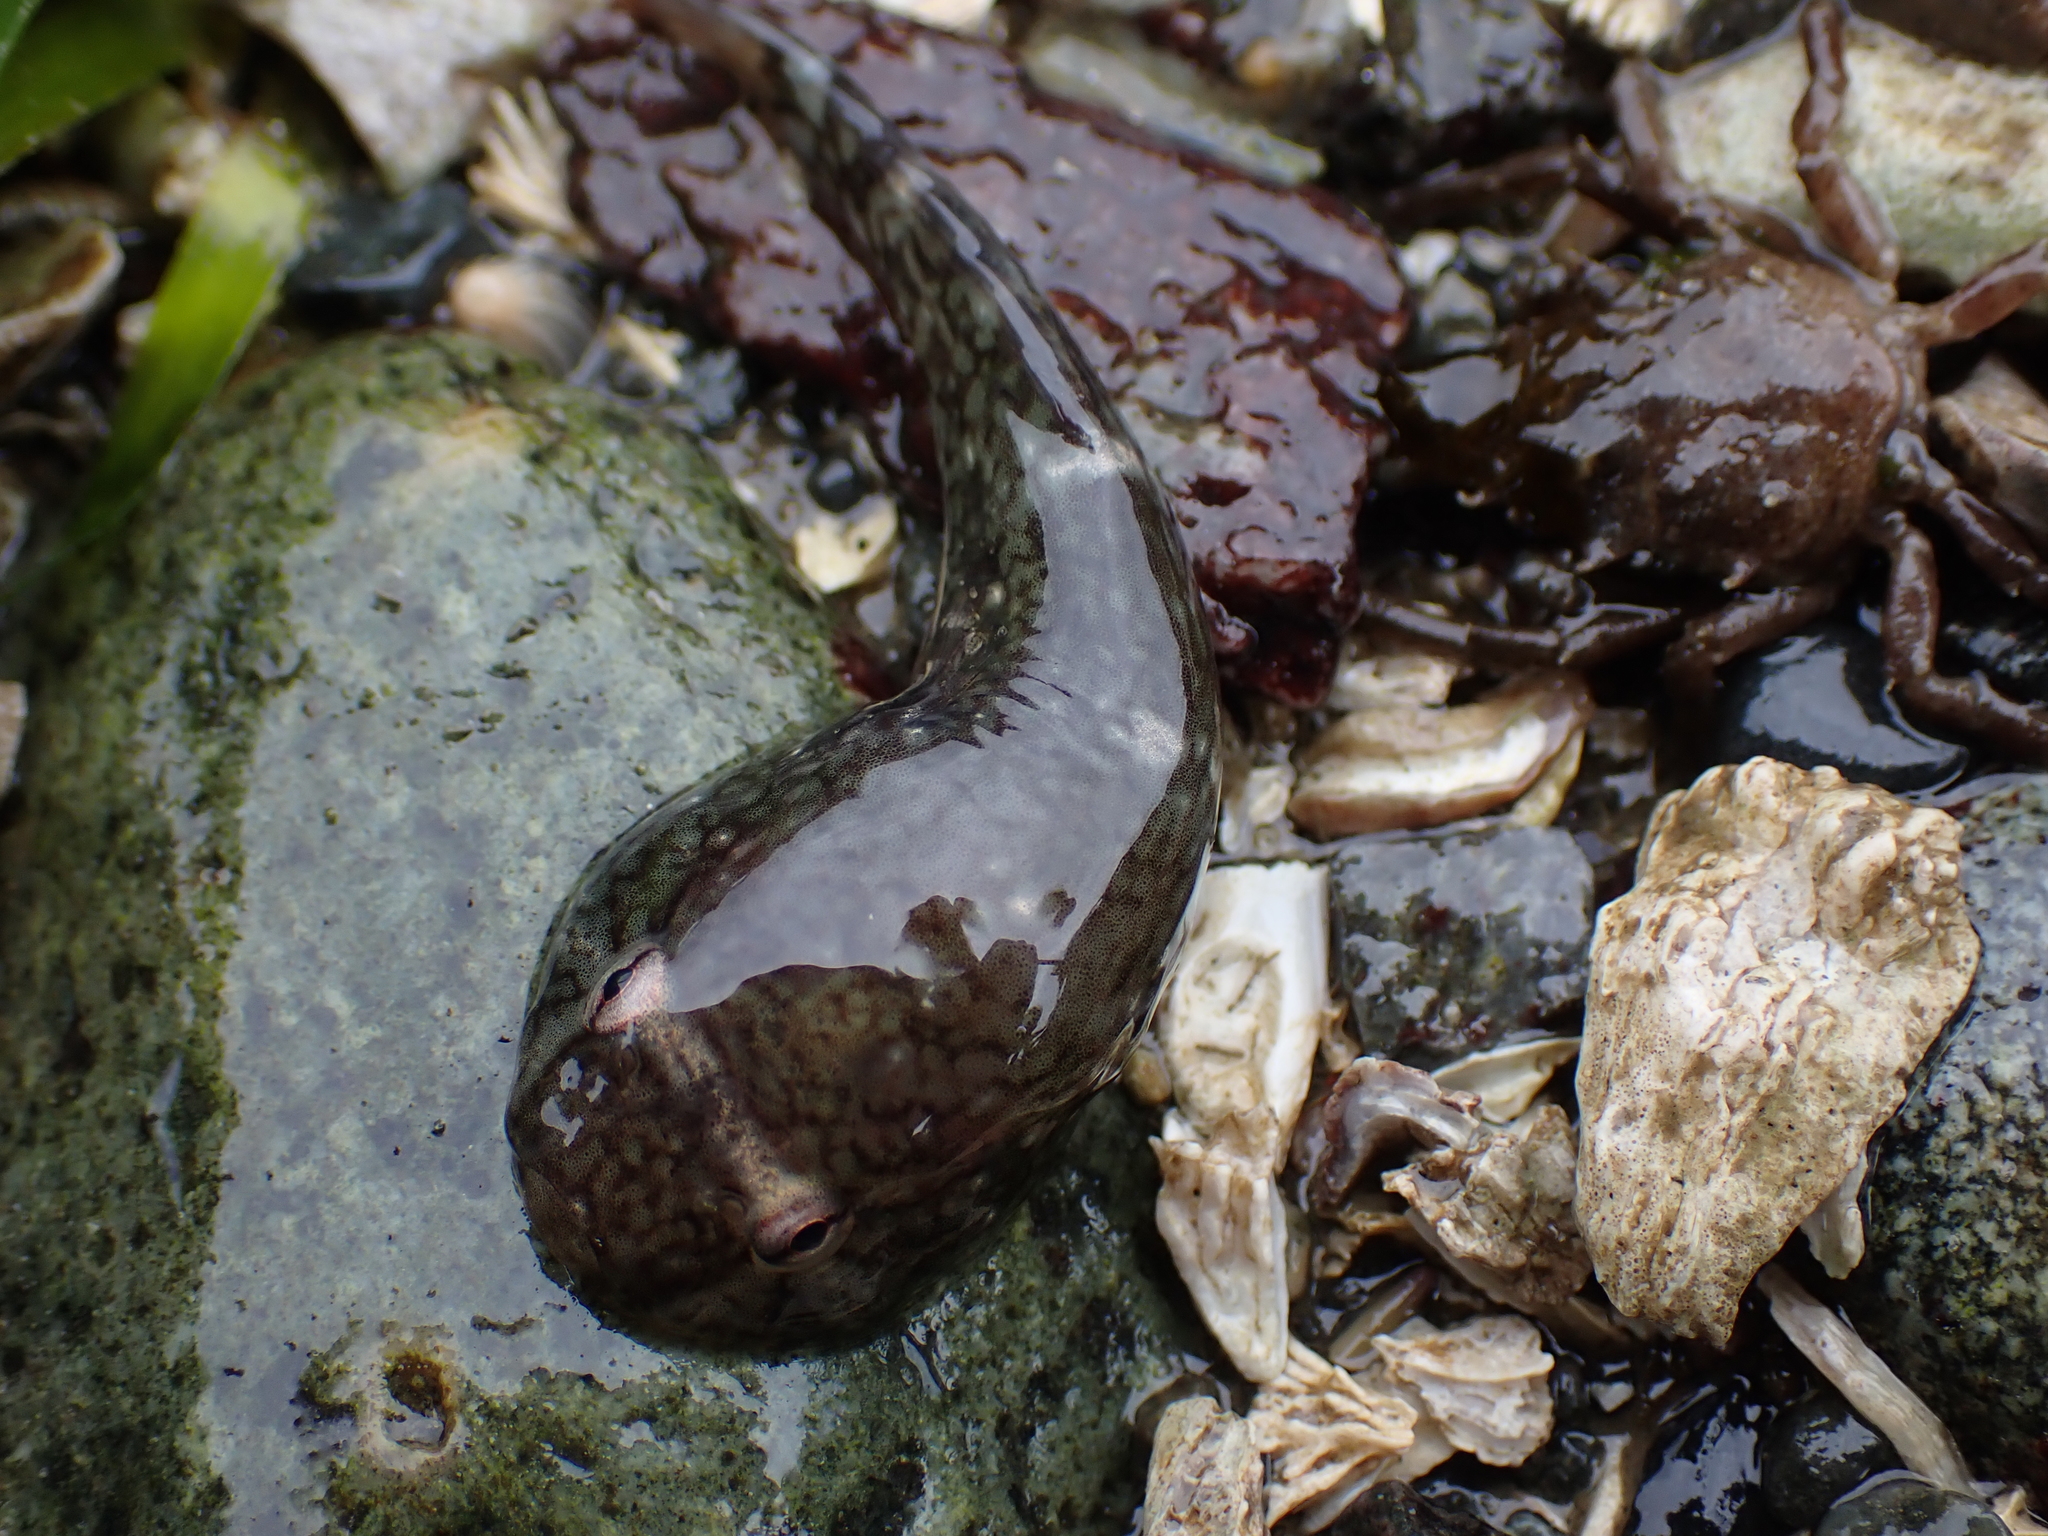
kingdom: Animalia
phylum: Chordata
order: Gobiesociformes
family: Gobiesocidae
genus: Gobiesox
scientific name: Gobiesox maeandricus
